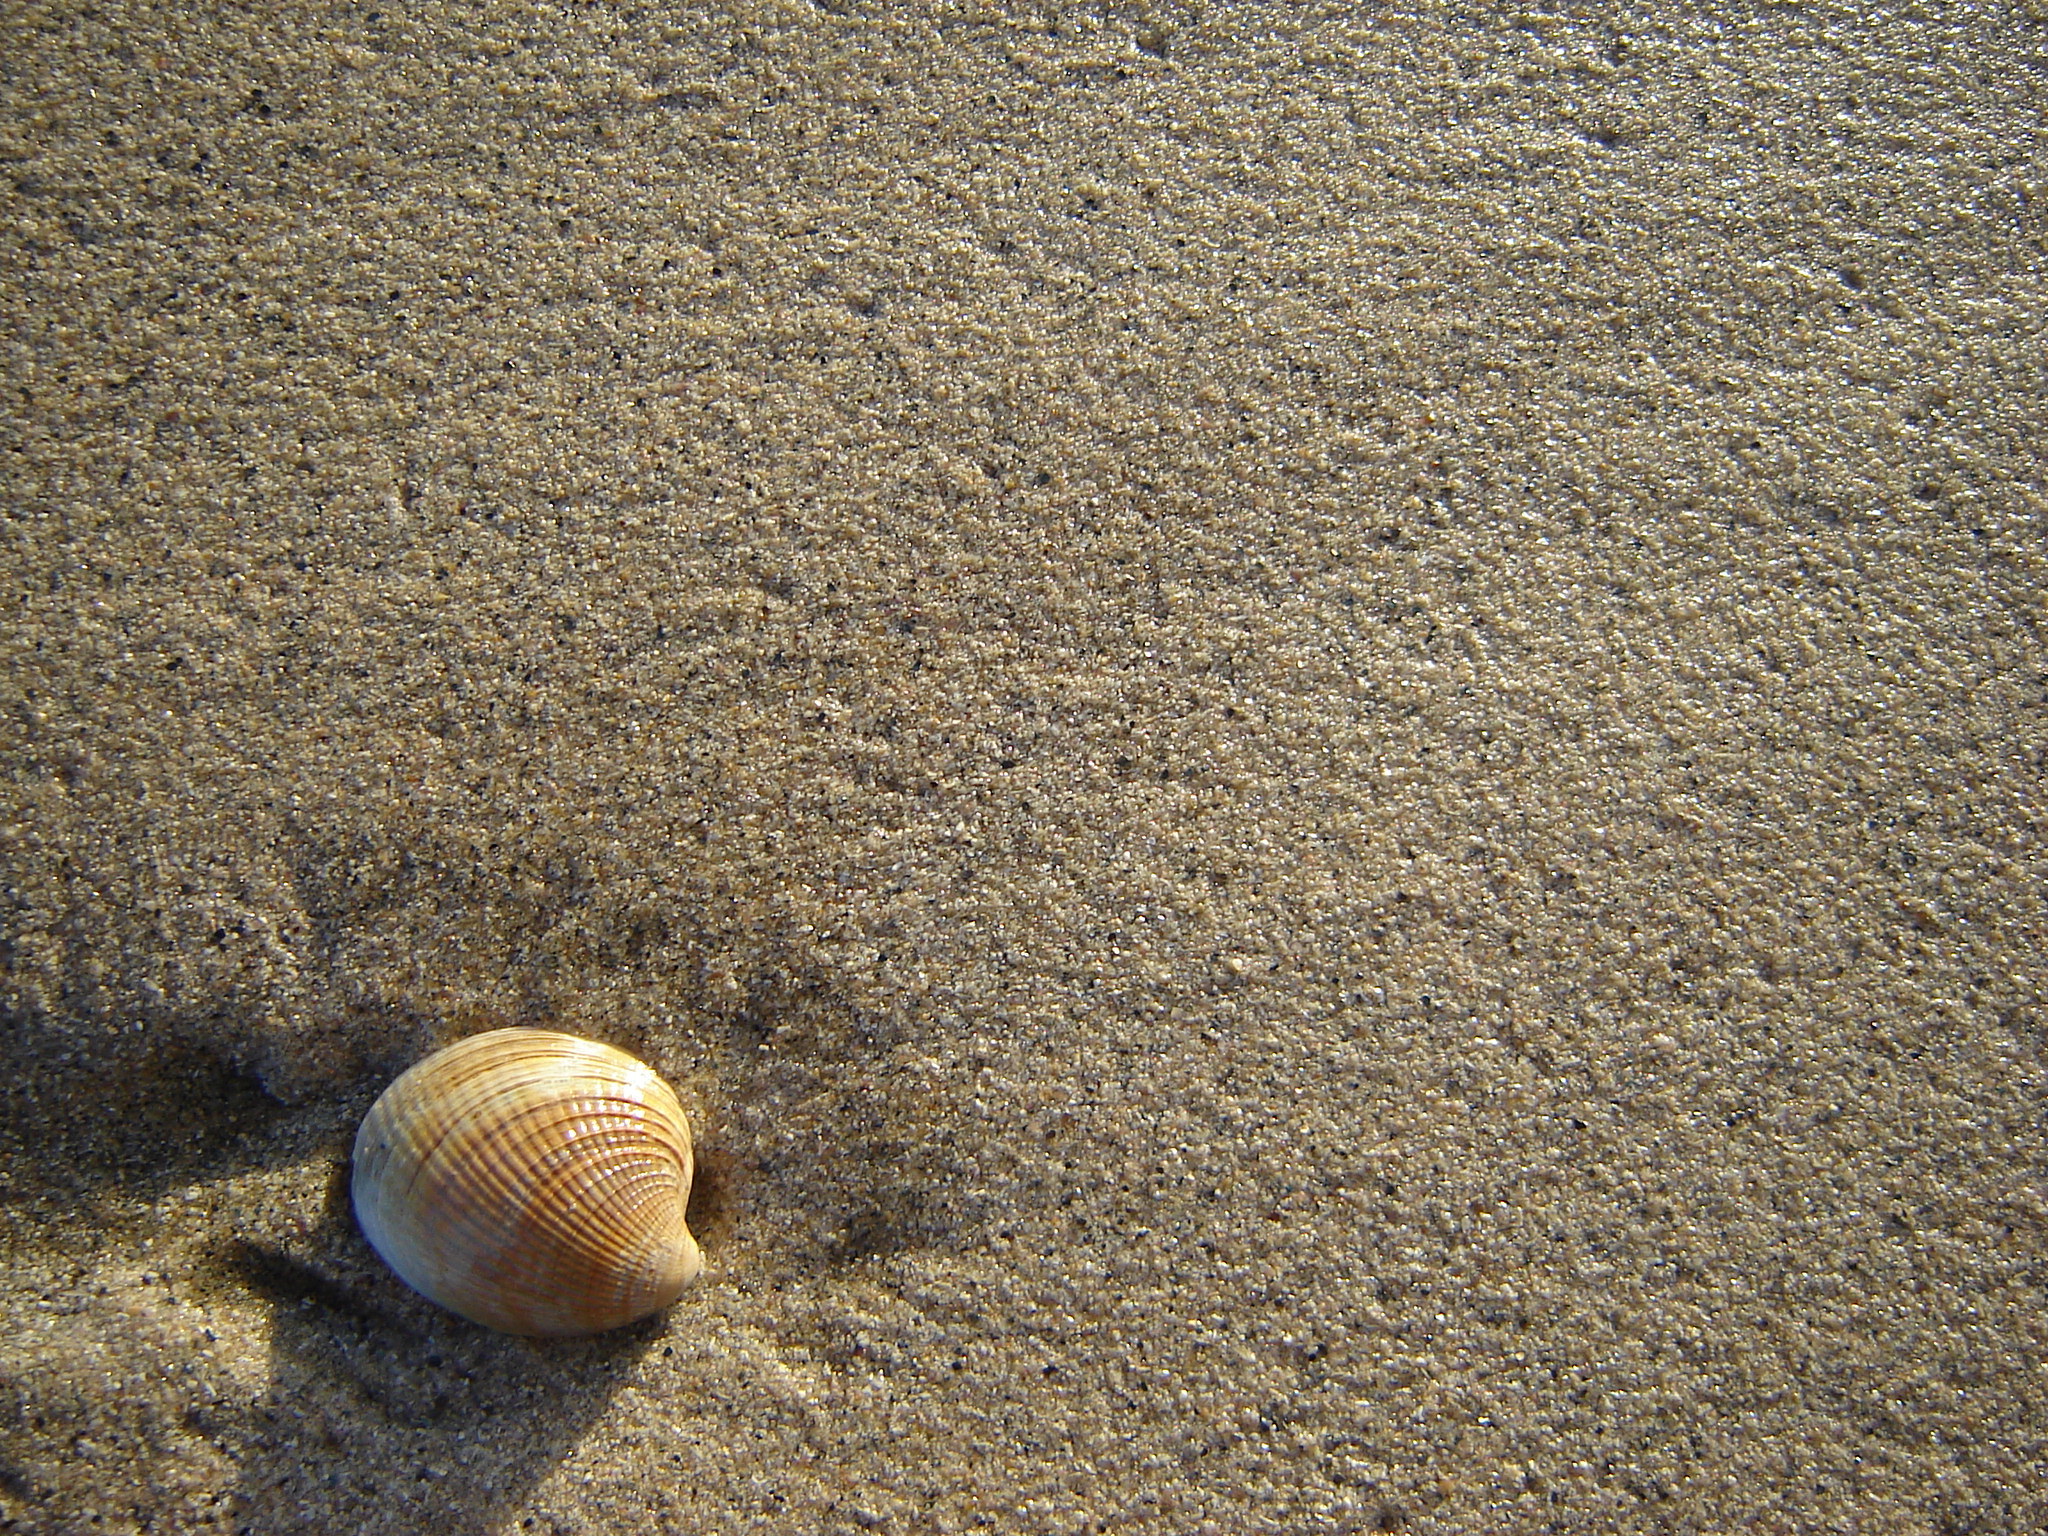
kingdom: Animalia
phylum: Mollusca
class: Bivalvia
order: Venerida
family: Veneridae
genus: Austrovenus
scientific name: Austrovenus stutchburyi
